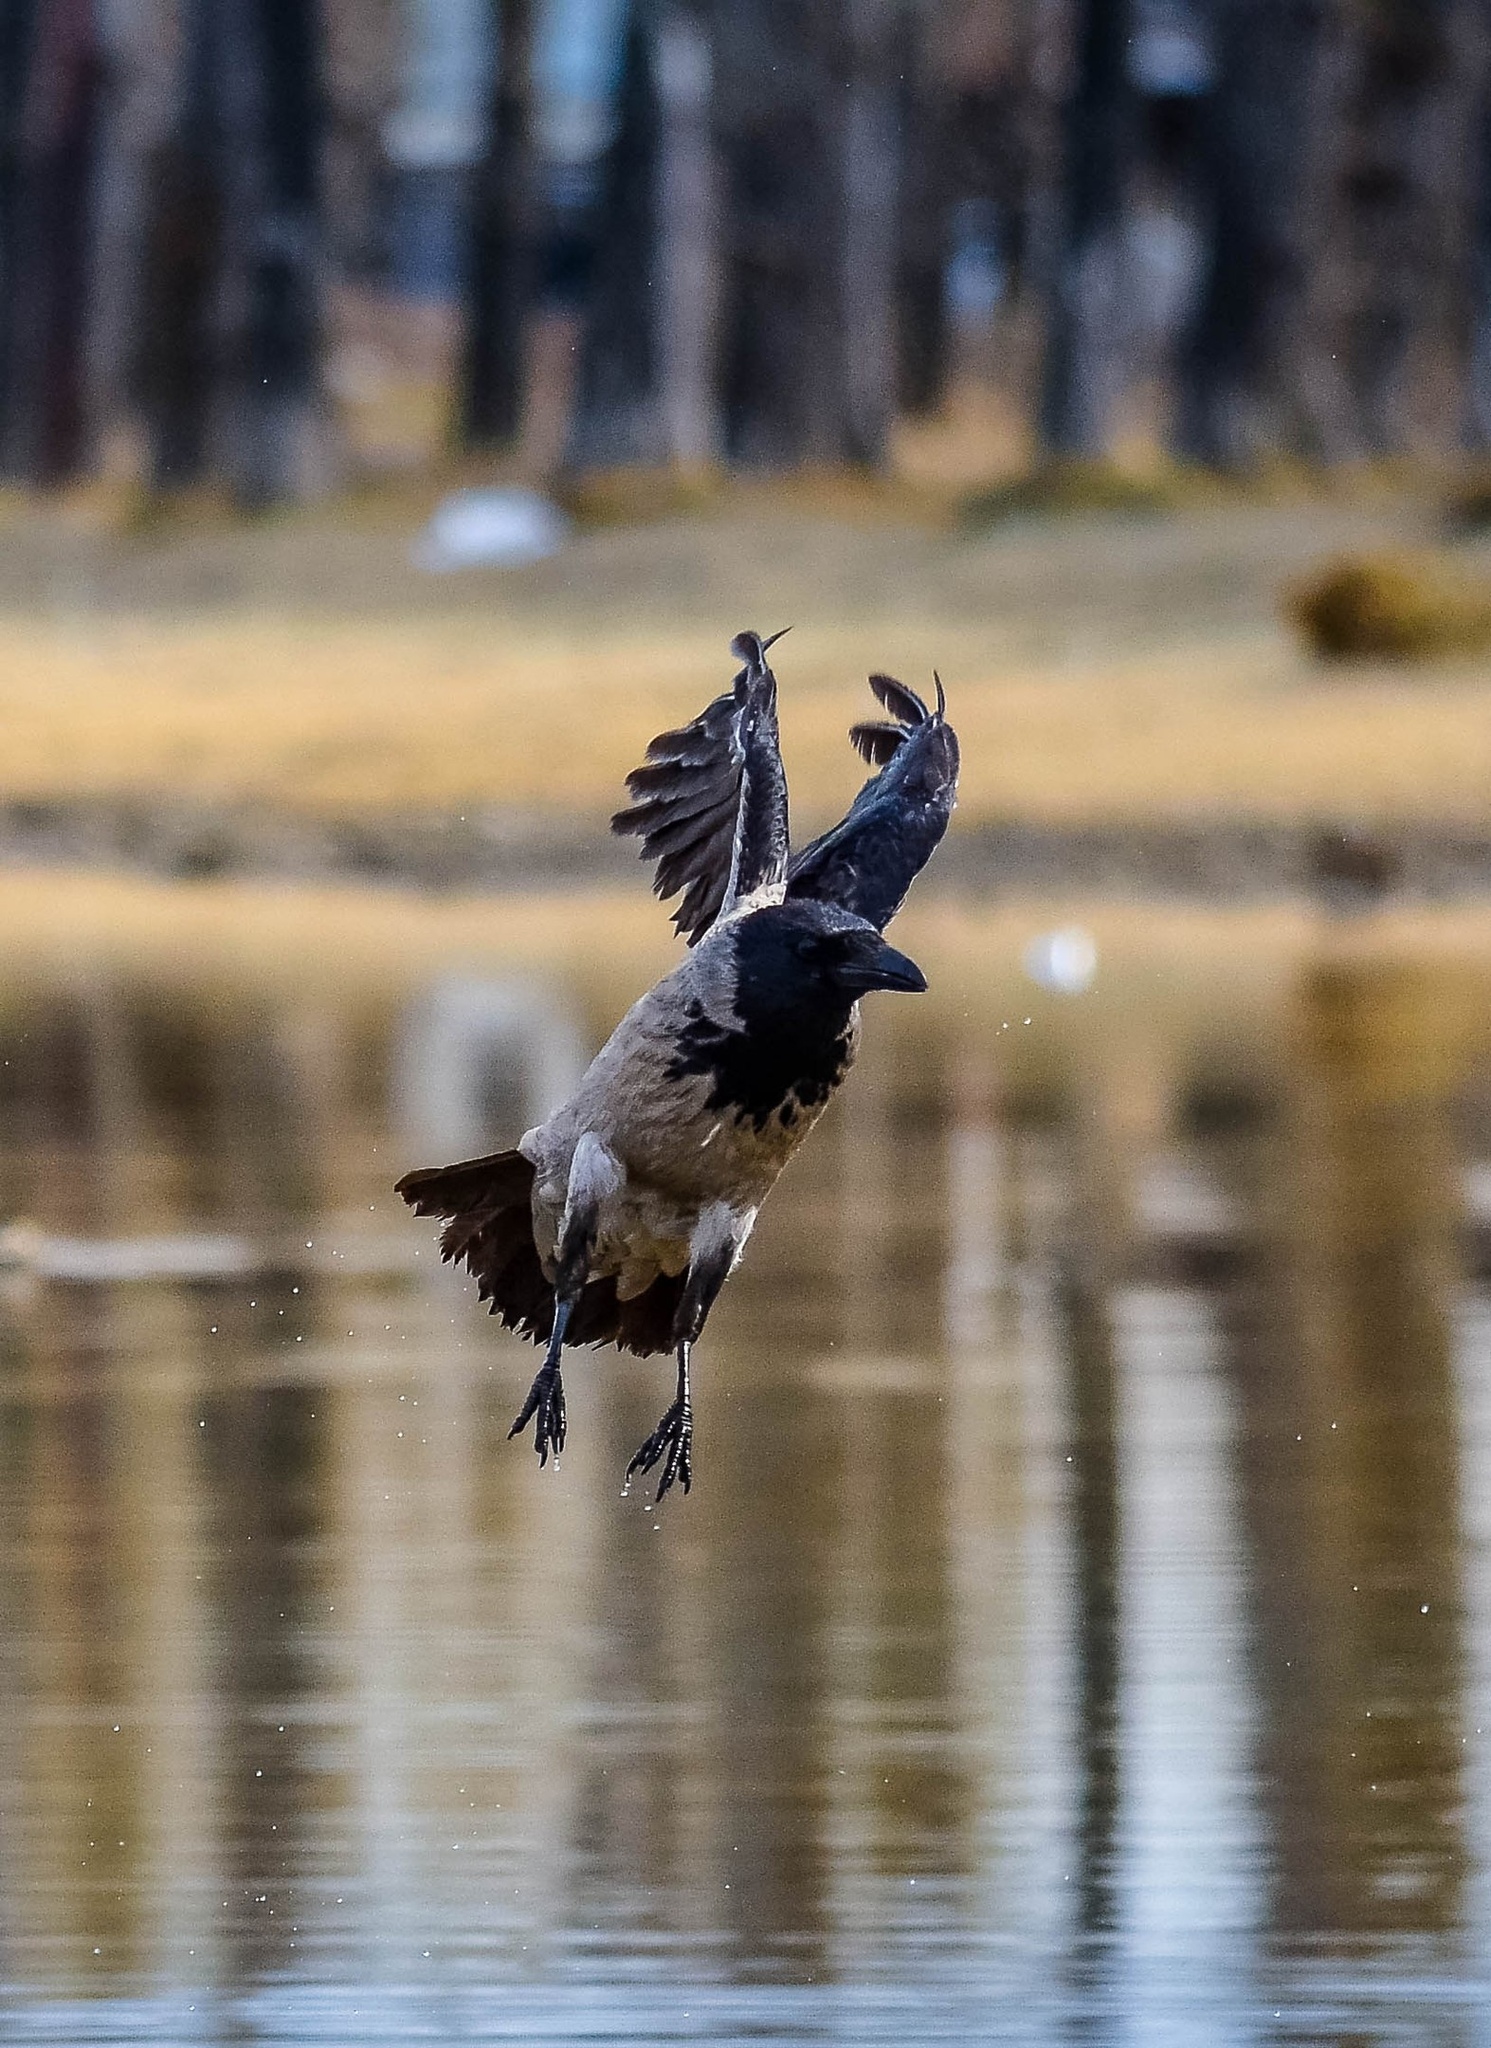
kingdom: Animalia
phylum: Chordata
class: Aves
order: Passeriformes
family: Corvidae
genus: Corvus
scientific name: Corvus cornix
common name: Hooded crow
